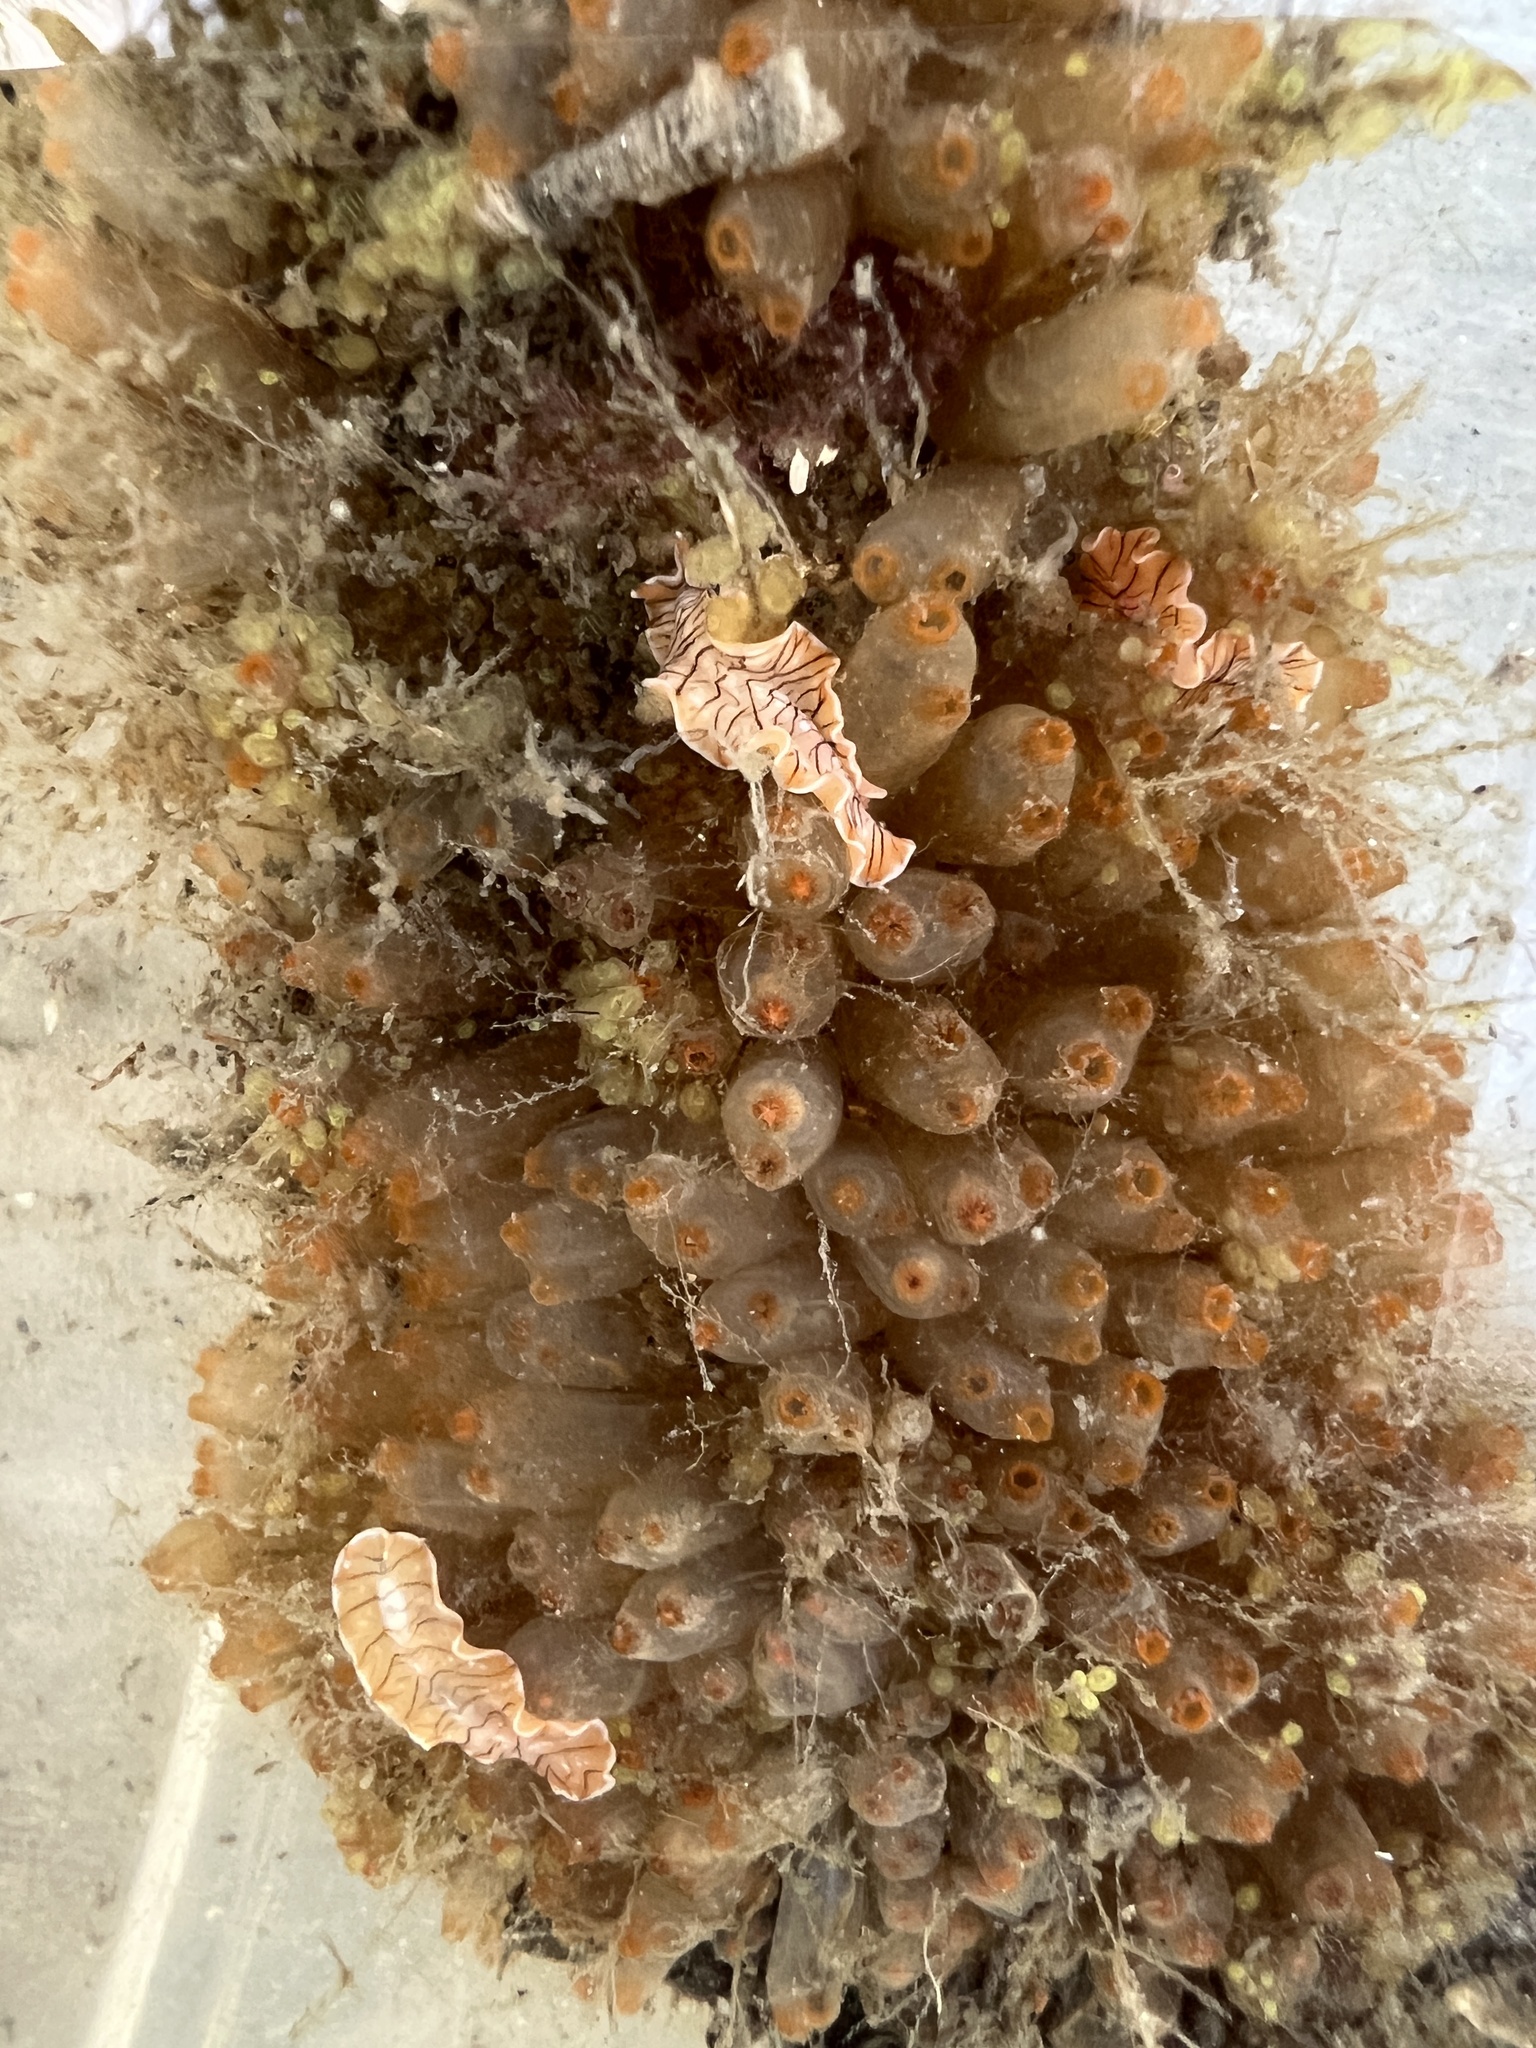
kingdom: Animalia
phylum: Chordata
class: Ascidiacea
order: Phlebobranchia
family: Perophoridae
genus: Ecteinascidia
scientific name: Ecteinascidia turbinata
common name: Mangrove tunicate
